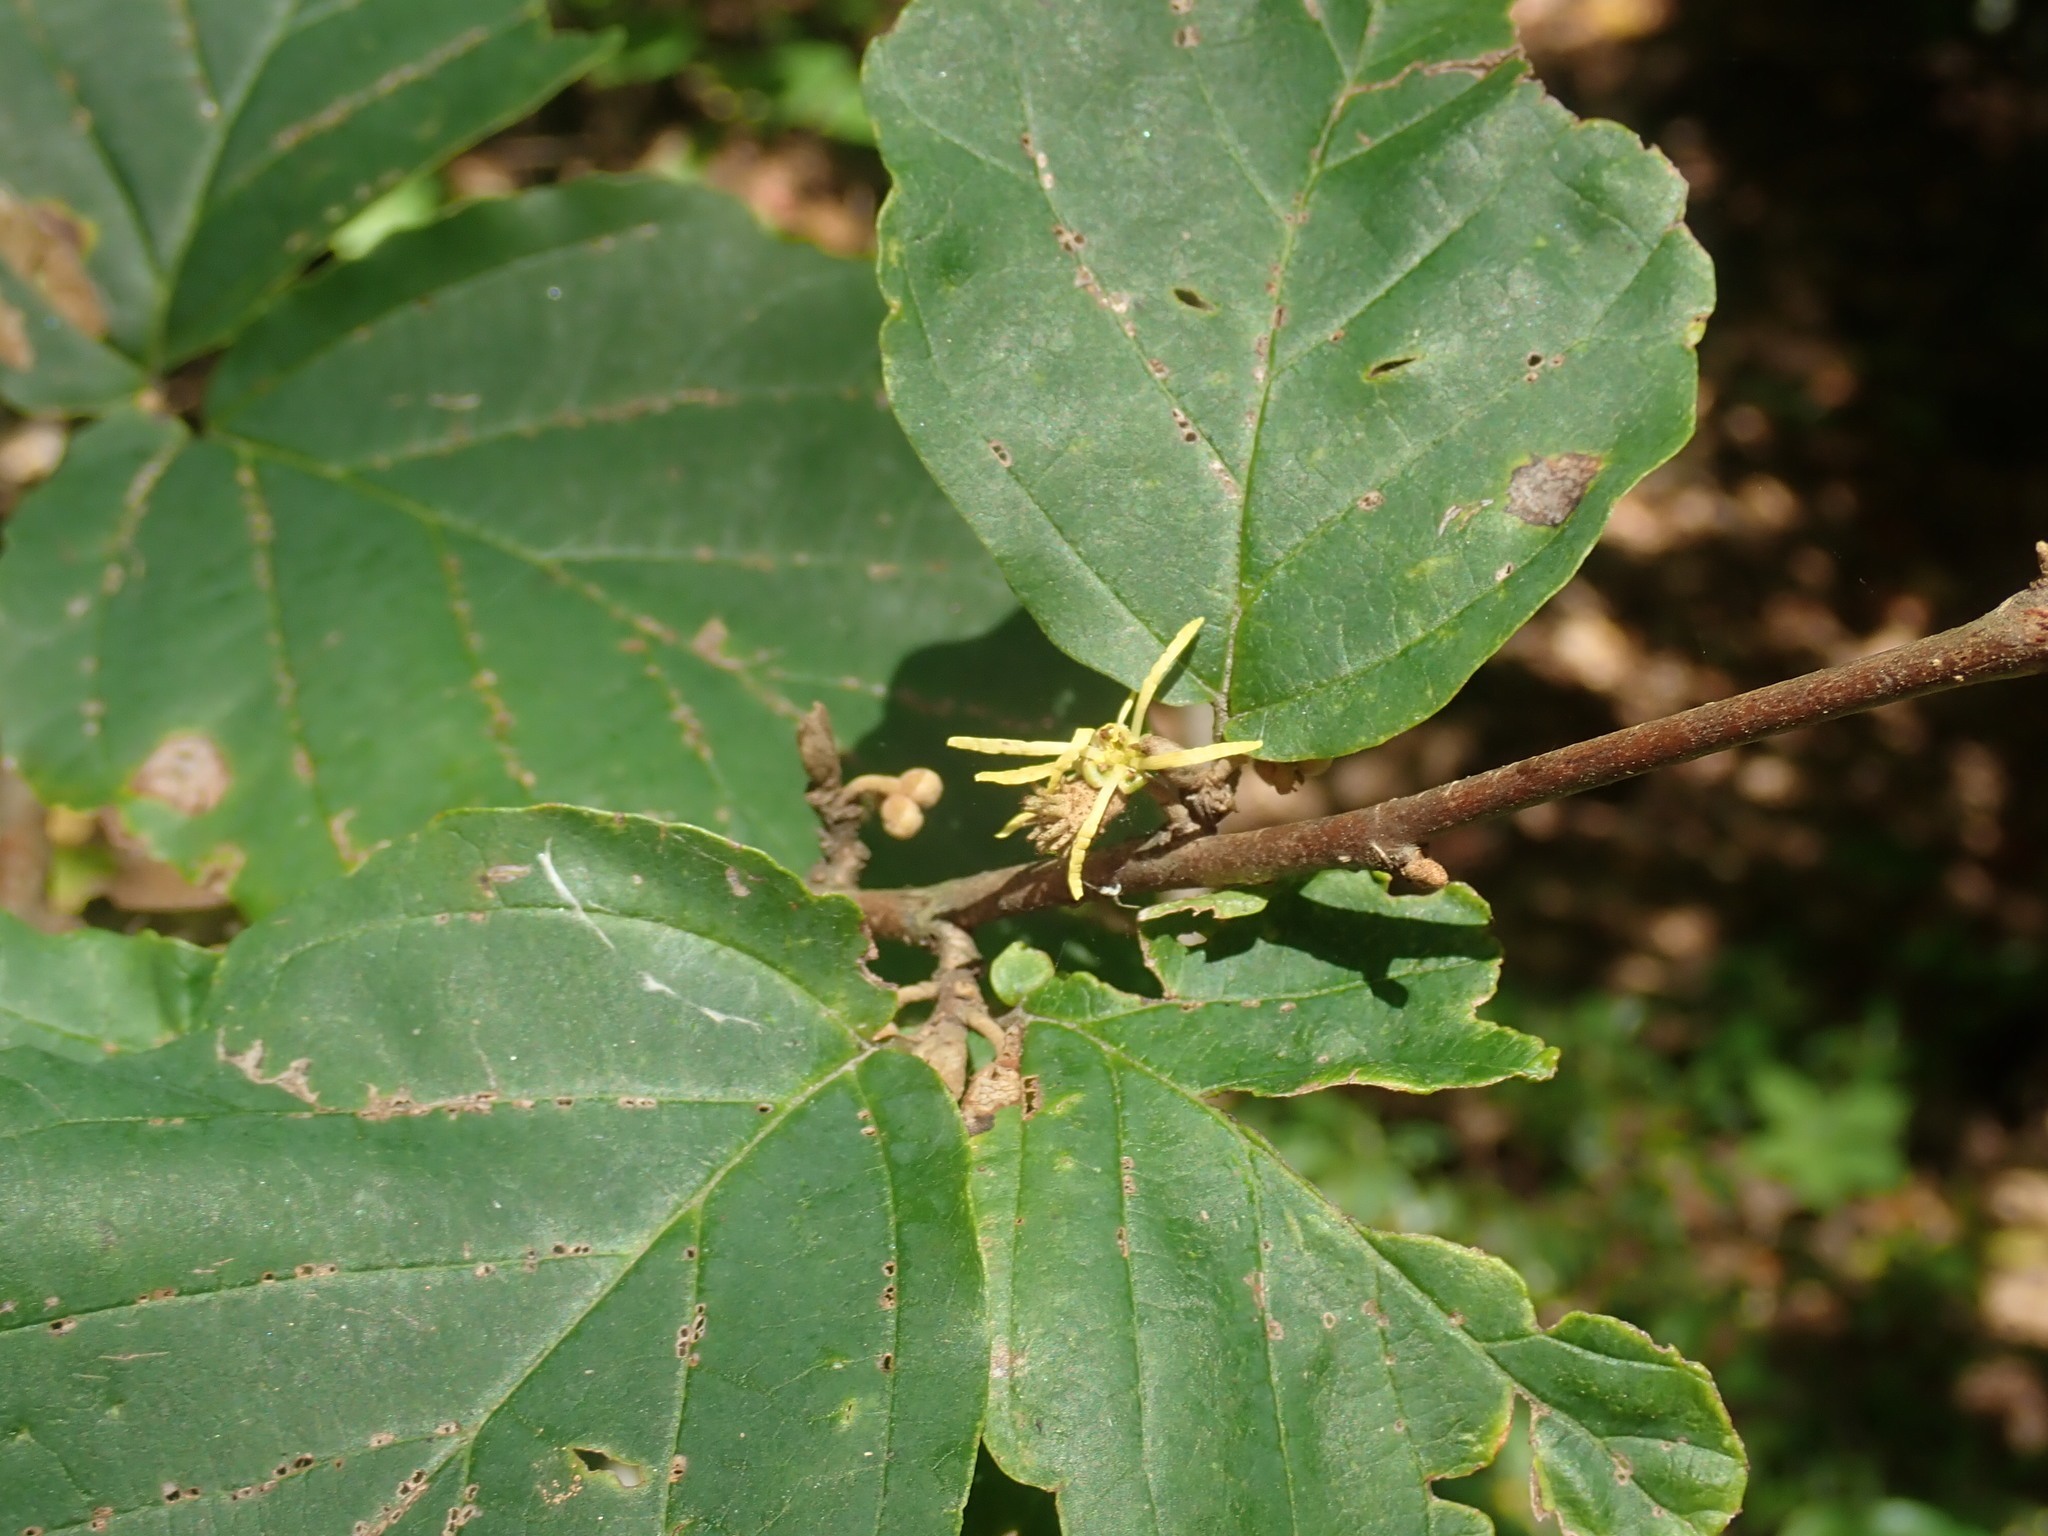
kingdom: Plantae
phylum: Tracheophyta
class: Magnoliopsida
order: Saxifragales
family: Hamamelidaceae
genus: Hamamelis
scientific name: Hamamelis virginiana
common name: Witch-hazel
